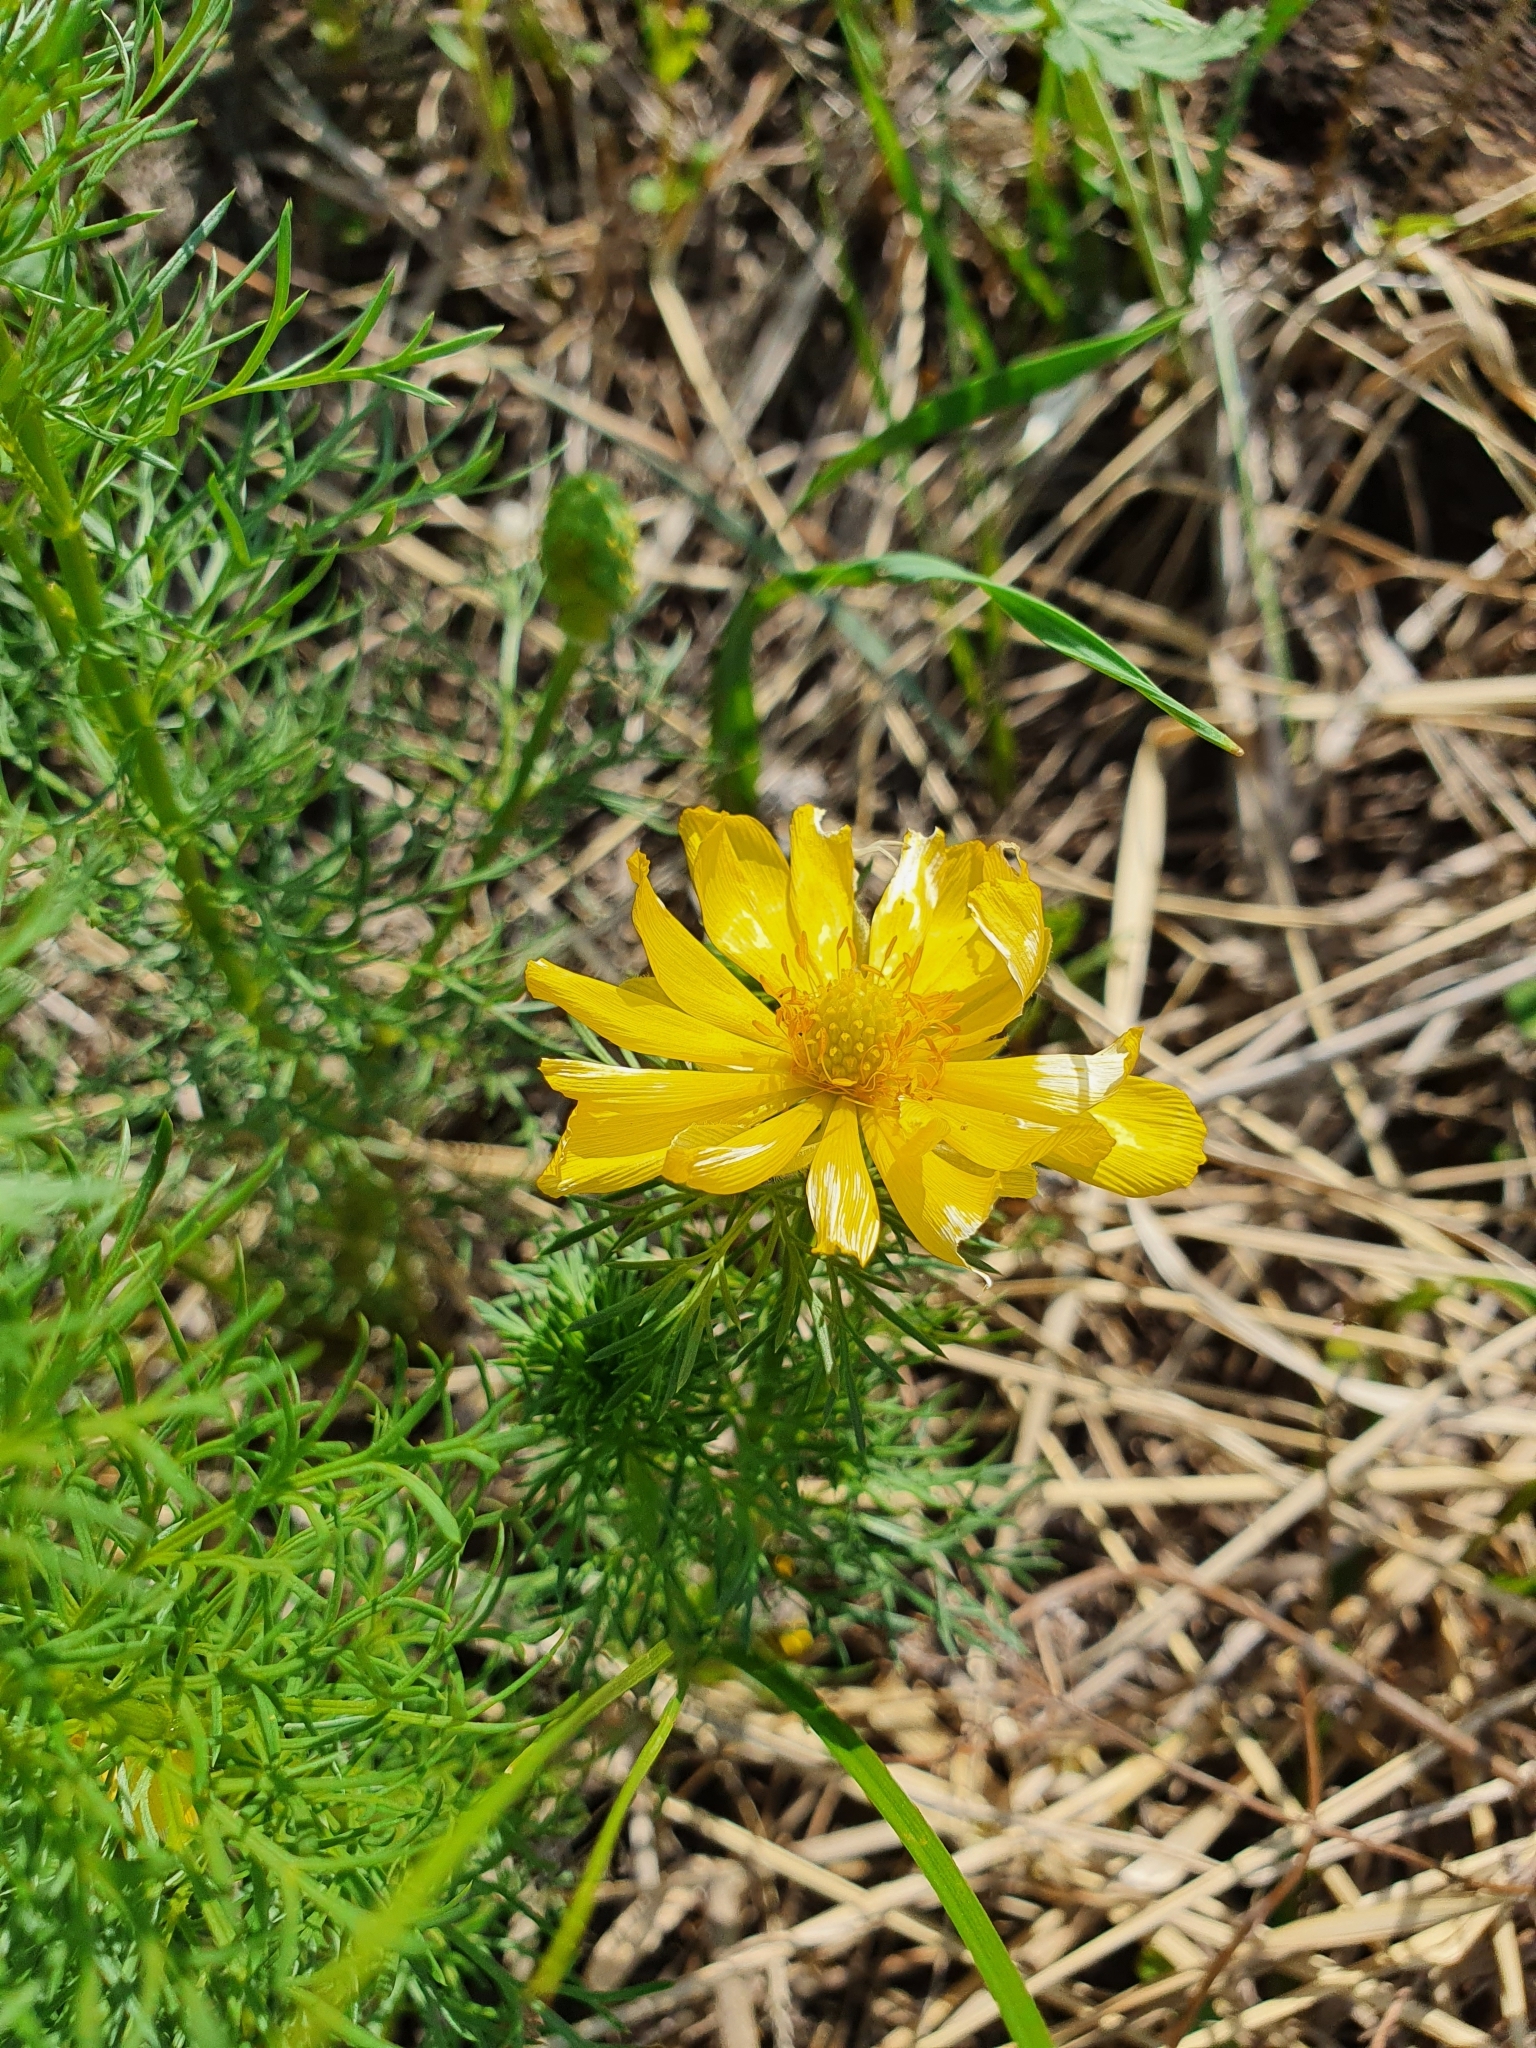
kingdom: Plantae
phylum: Tracheophyta
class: Magnoliopsida
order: Ranunculales
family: Ranunculaceae
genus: Adonis
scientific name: Adonis vernalis
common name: Yellow pheasants-eye
